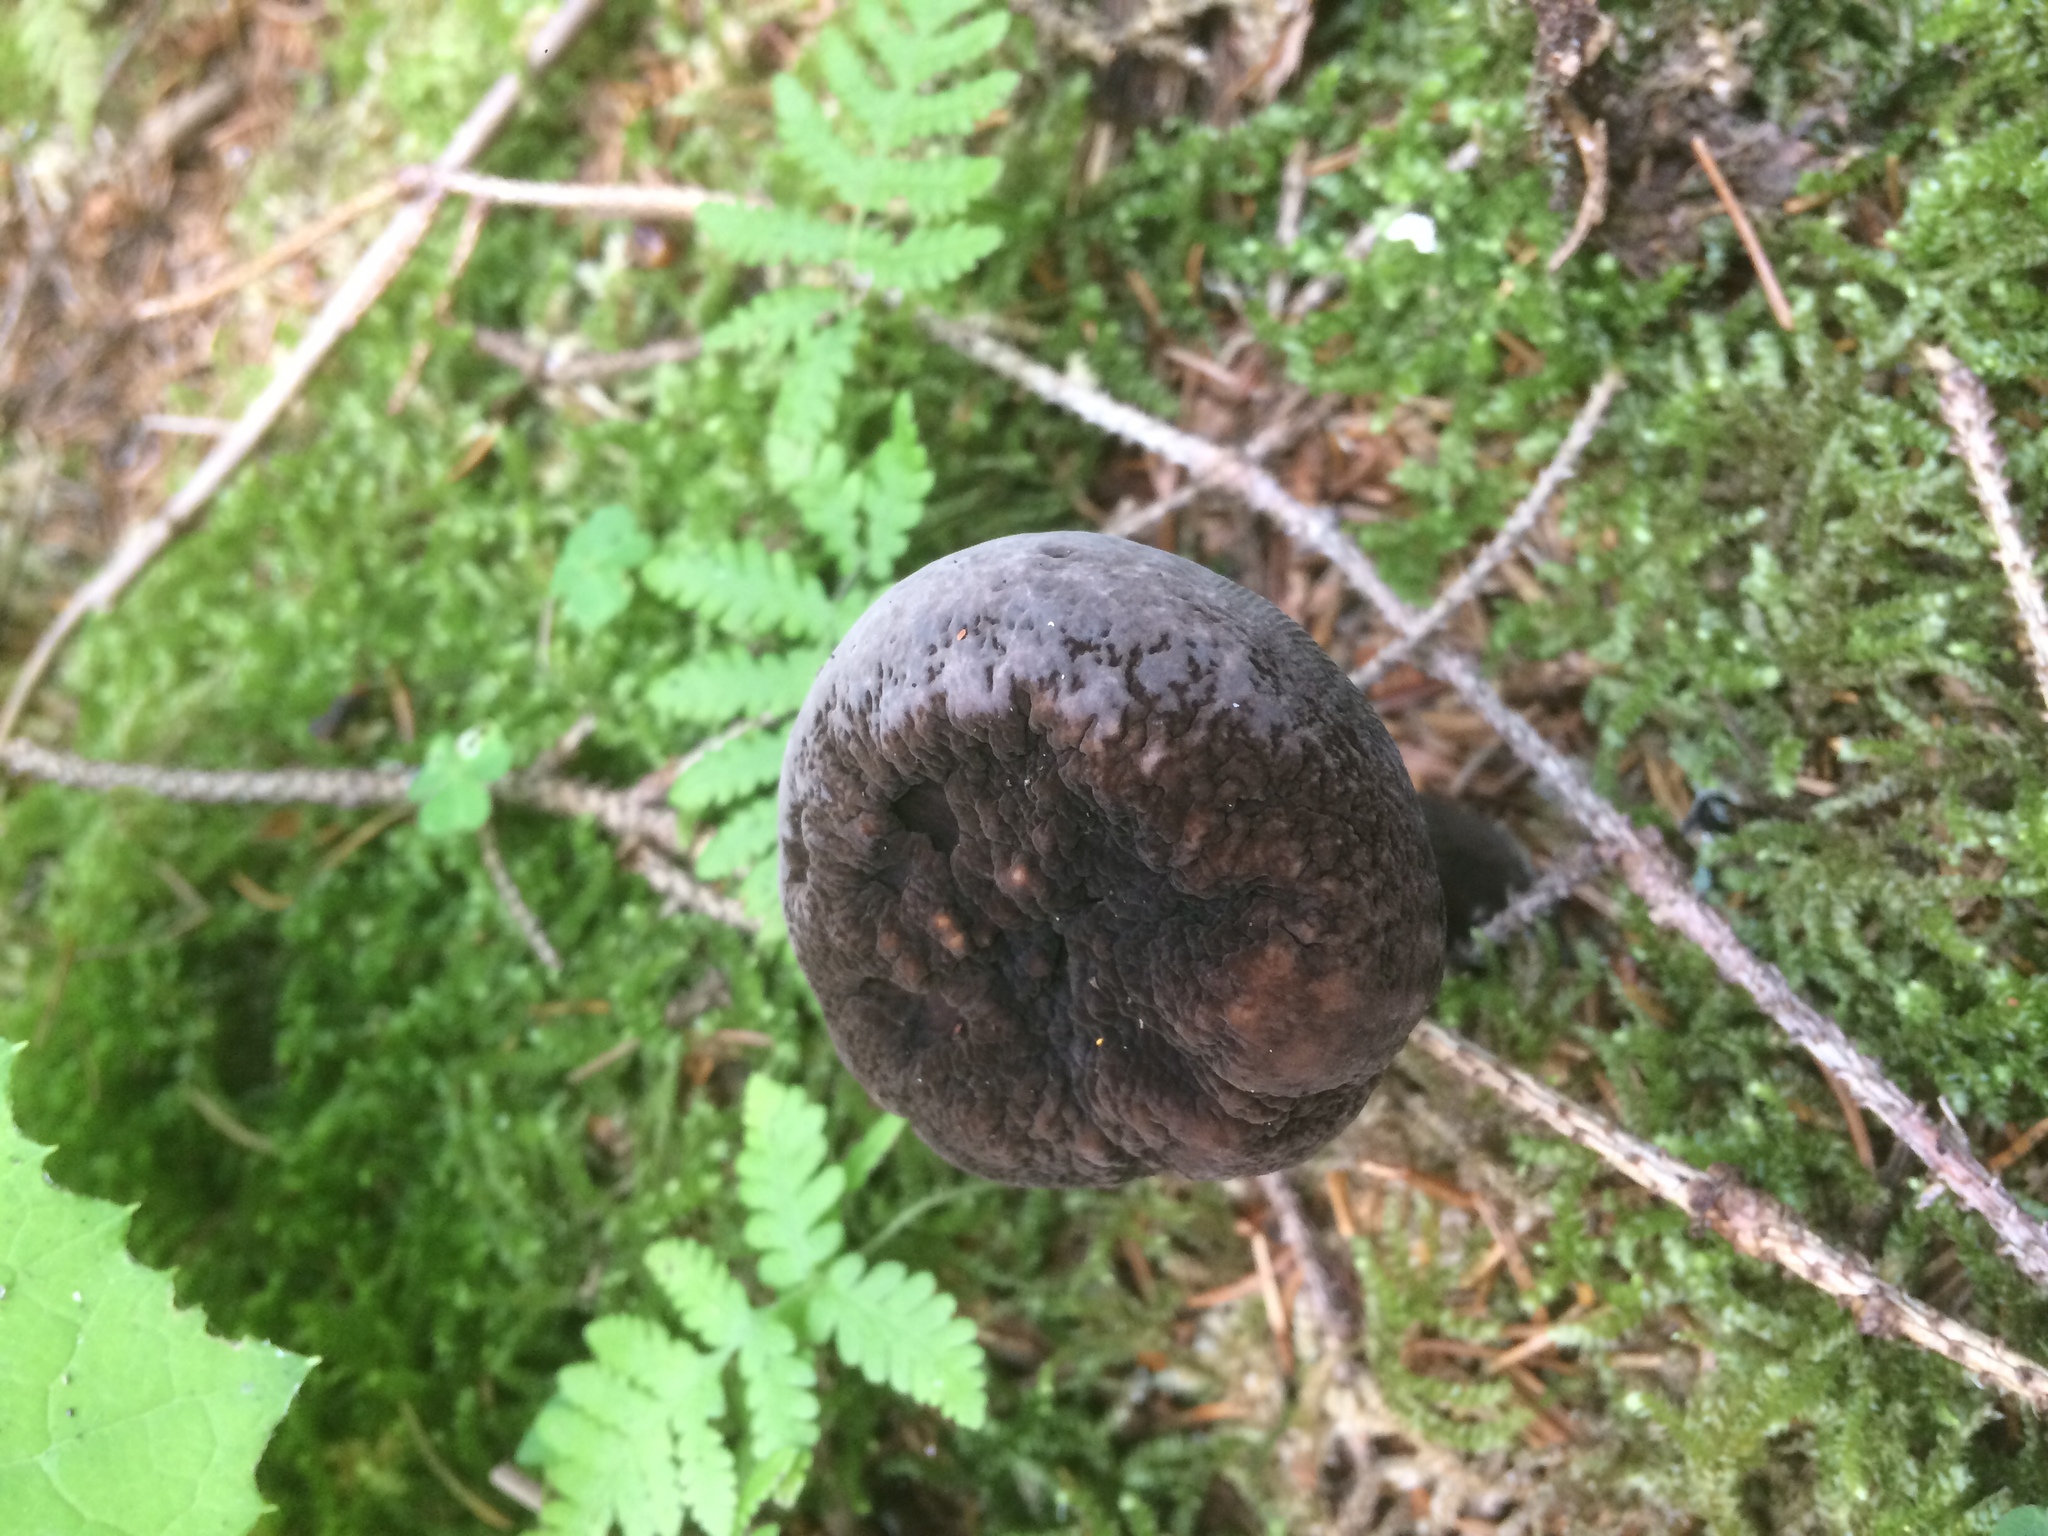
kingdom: Fungi
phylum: Basidiomycota
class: Agaricomycetes
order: Russulales
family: Russulaceae
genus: Lactarius
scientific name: Lactarius lignyotus
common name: Velvet milkcap
